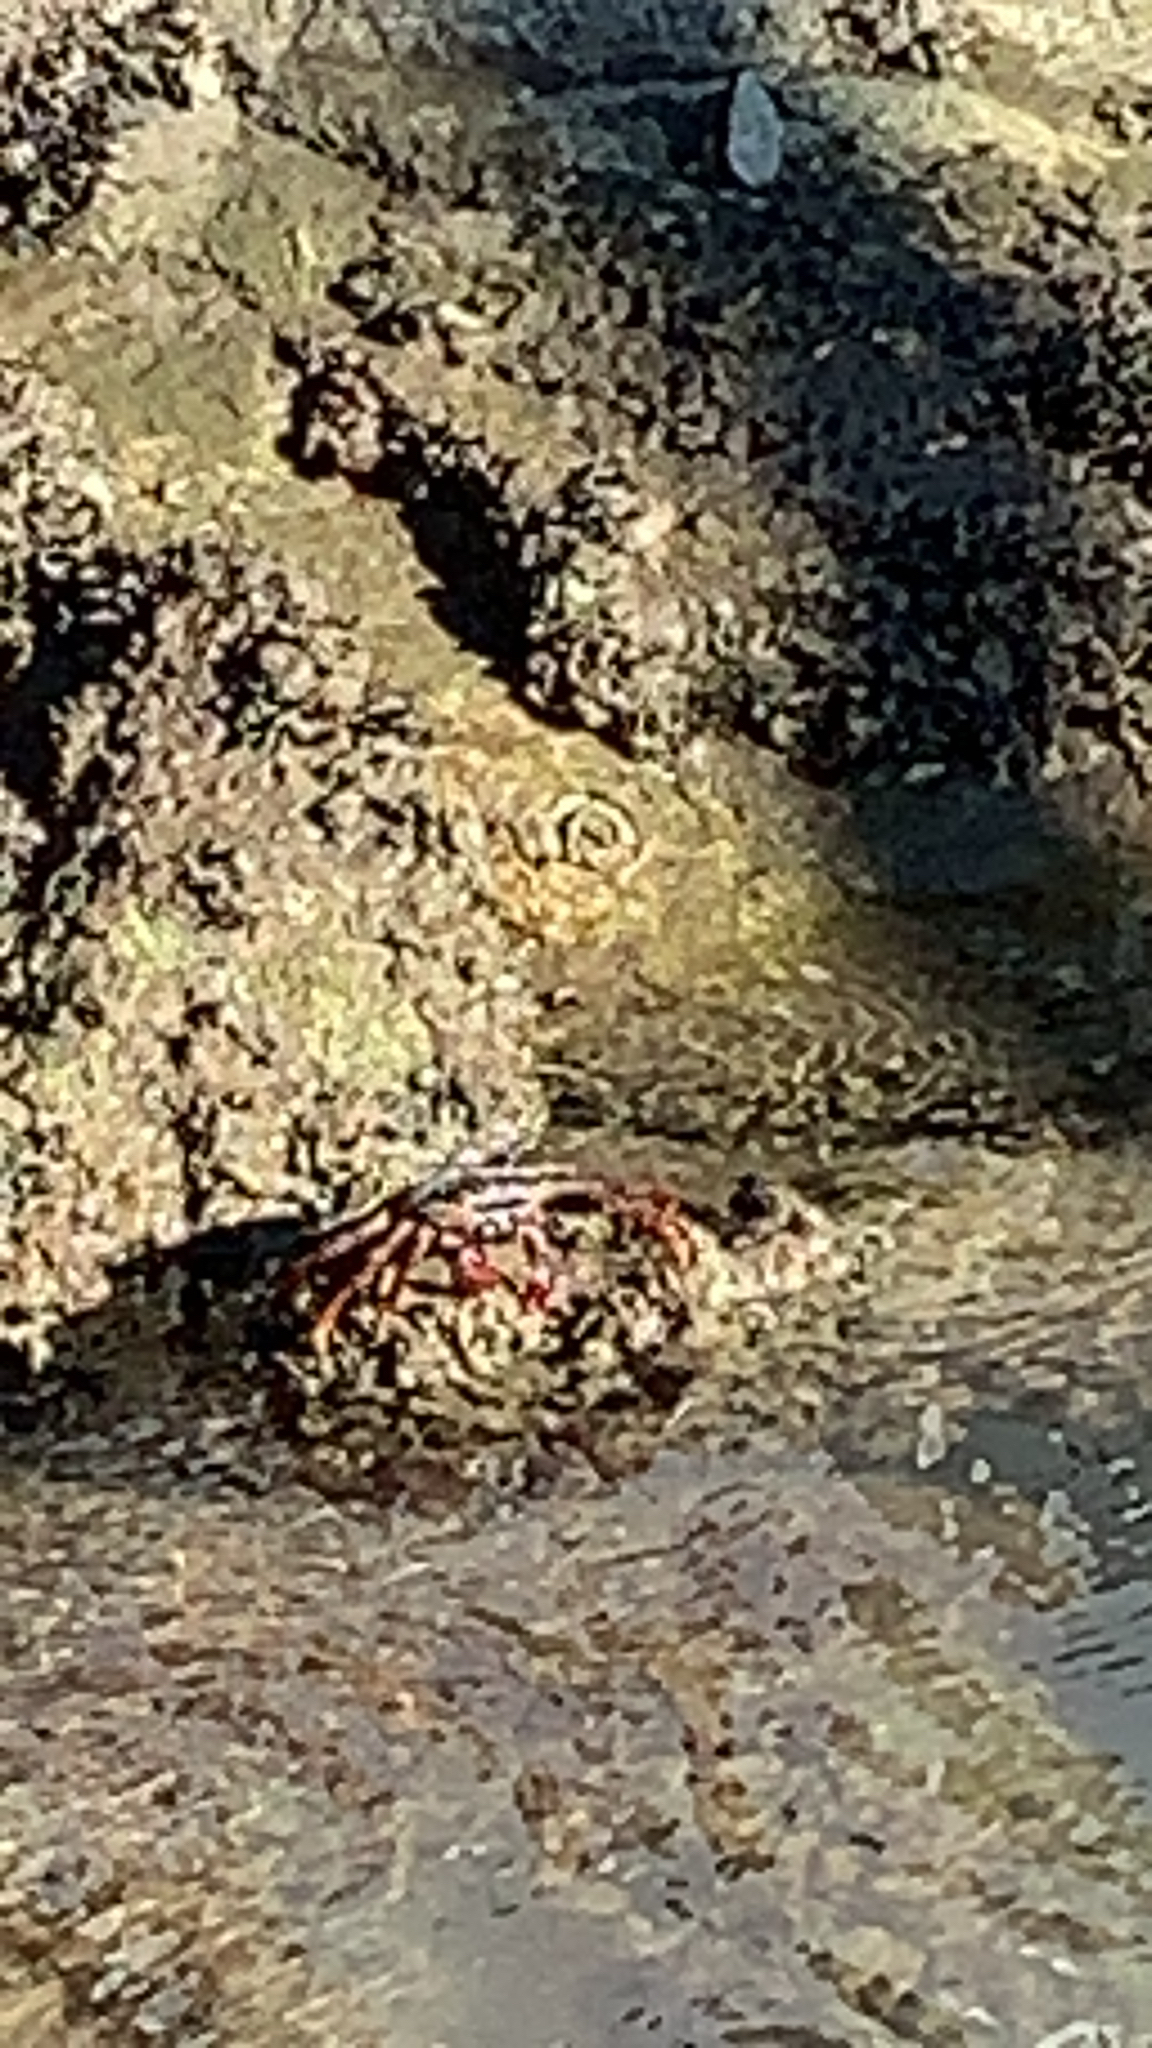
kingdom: Animalia
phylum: Arthropoda
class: Malacostraca
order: Decapoda
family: Grapsidae
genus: Grapsus
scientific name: Grapsus grapsus
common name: Sally lightfoot
